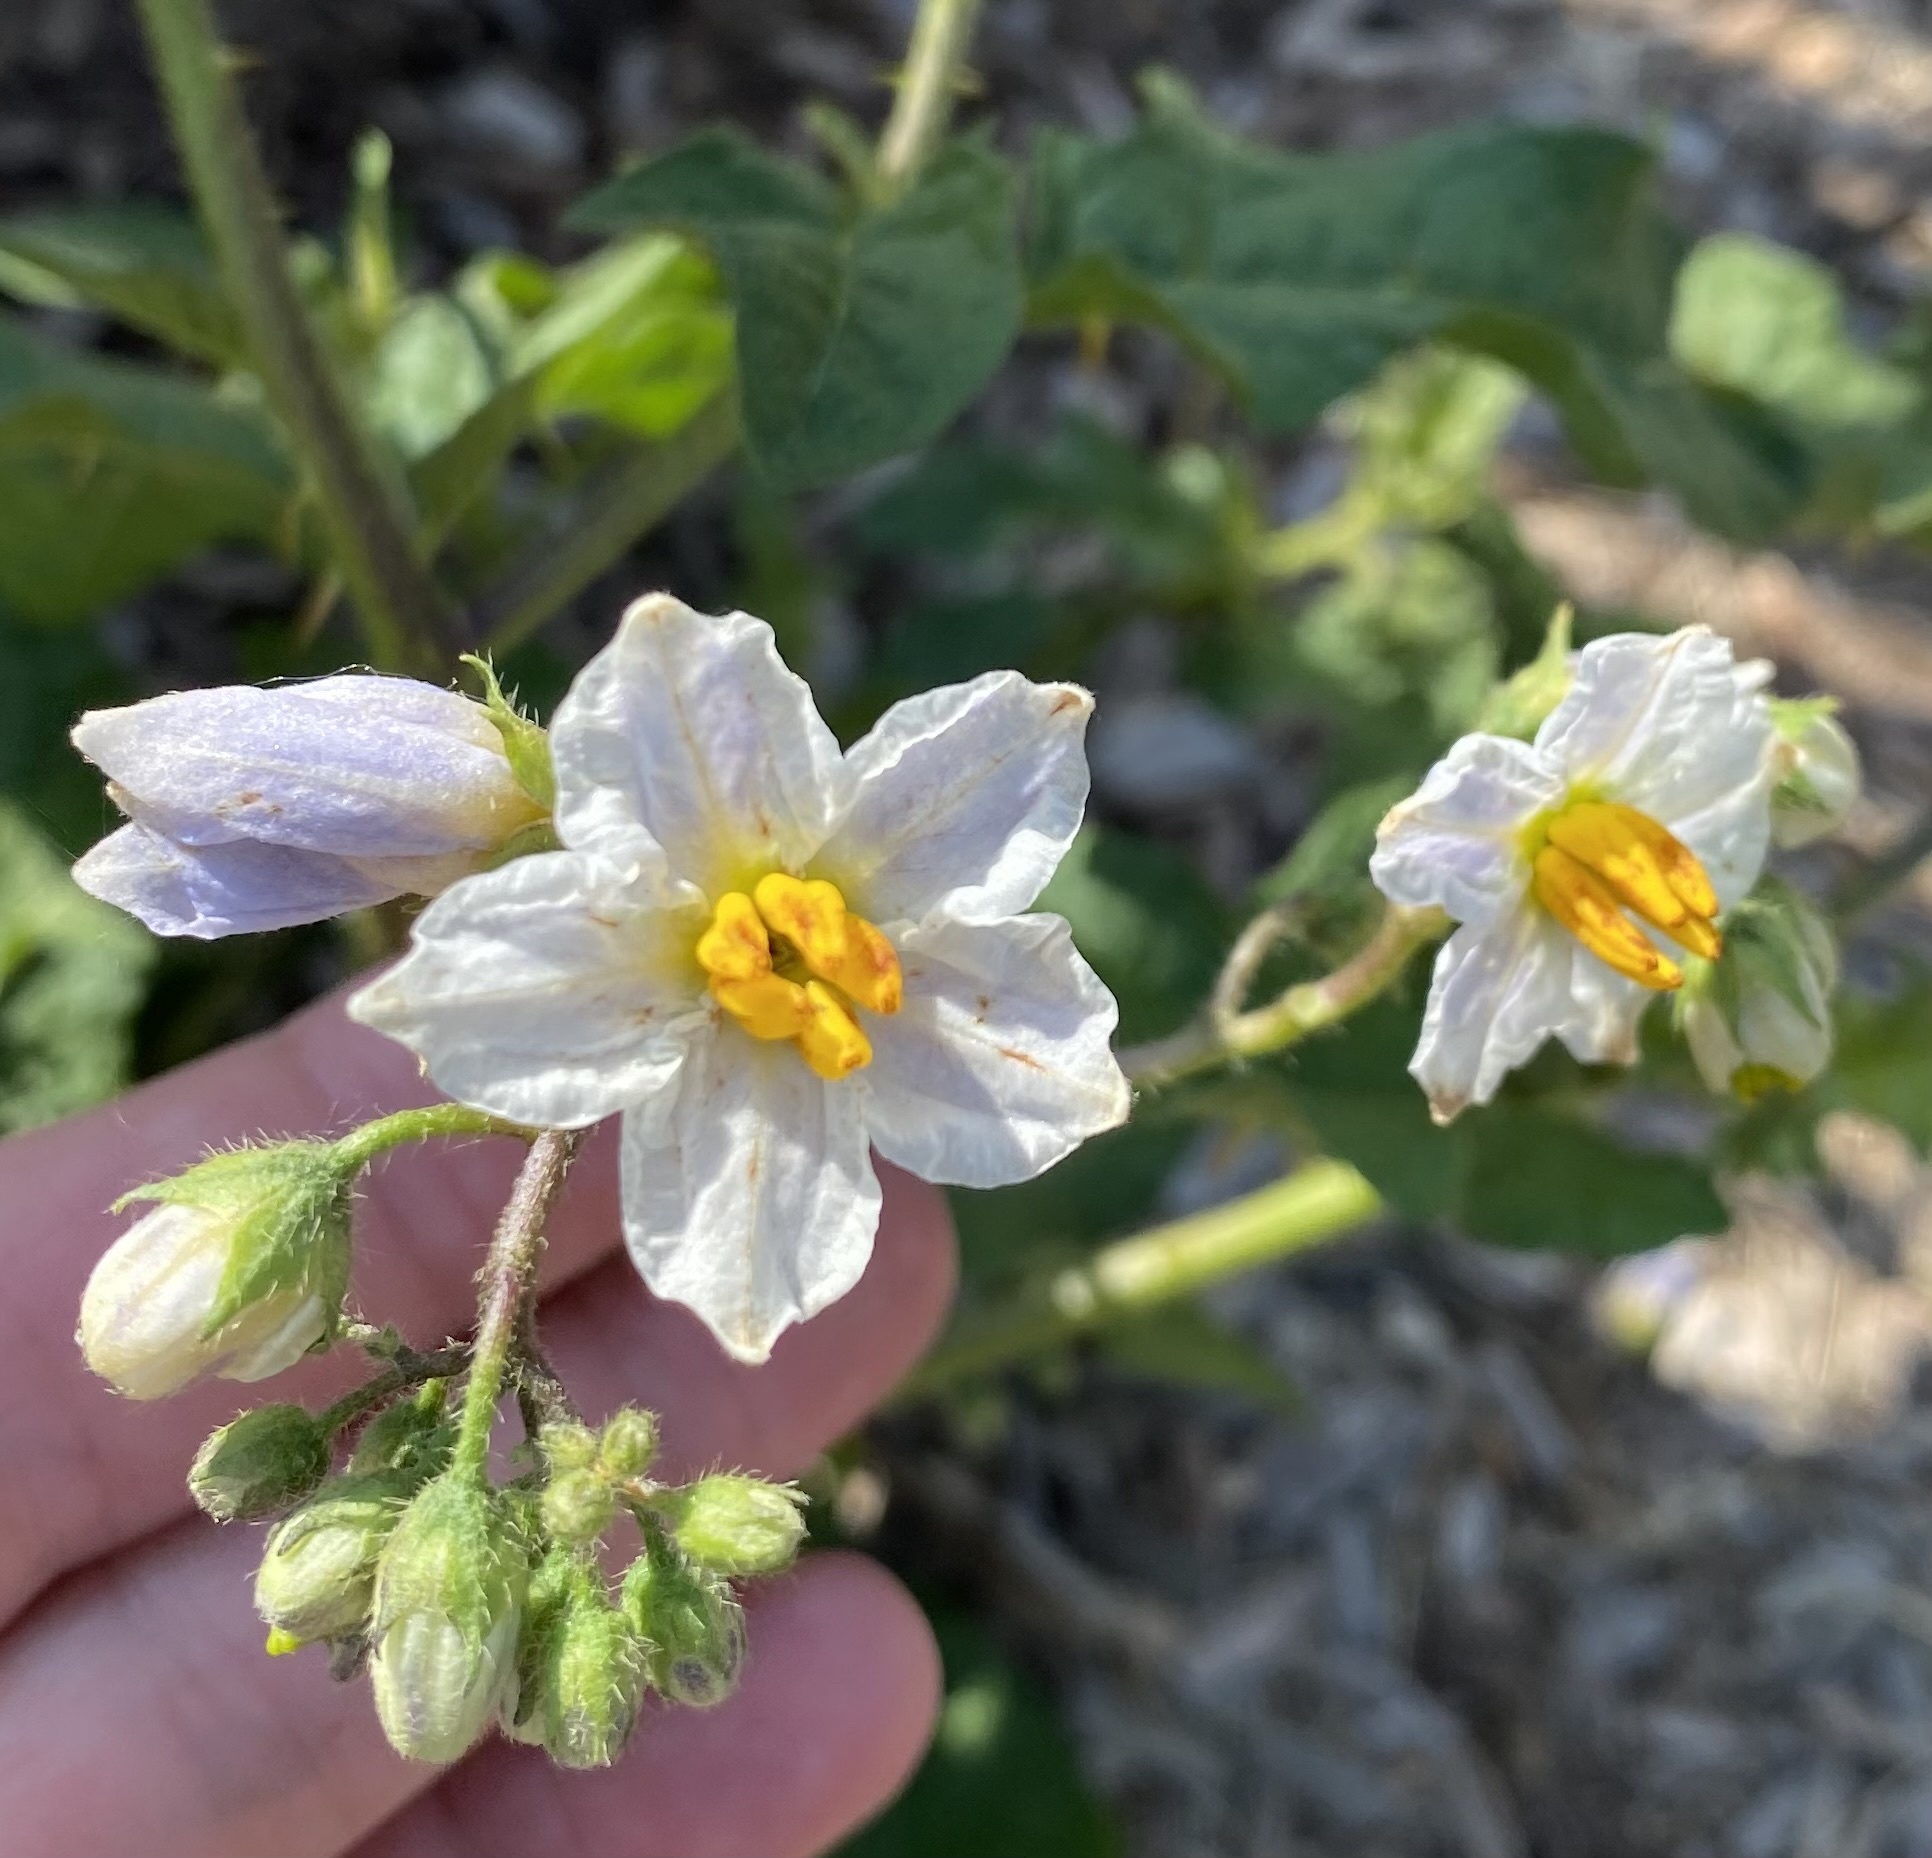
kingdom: Plantae
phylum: Tracheophyta
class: Magnoliopsida
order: Solanales
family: Solanaceae
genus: Solanum
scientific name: Solanum carolinense
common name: Horse-nettle
